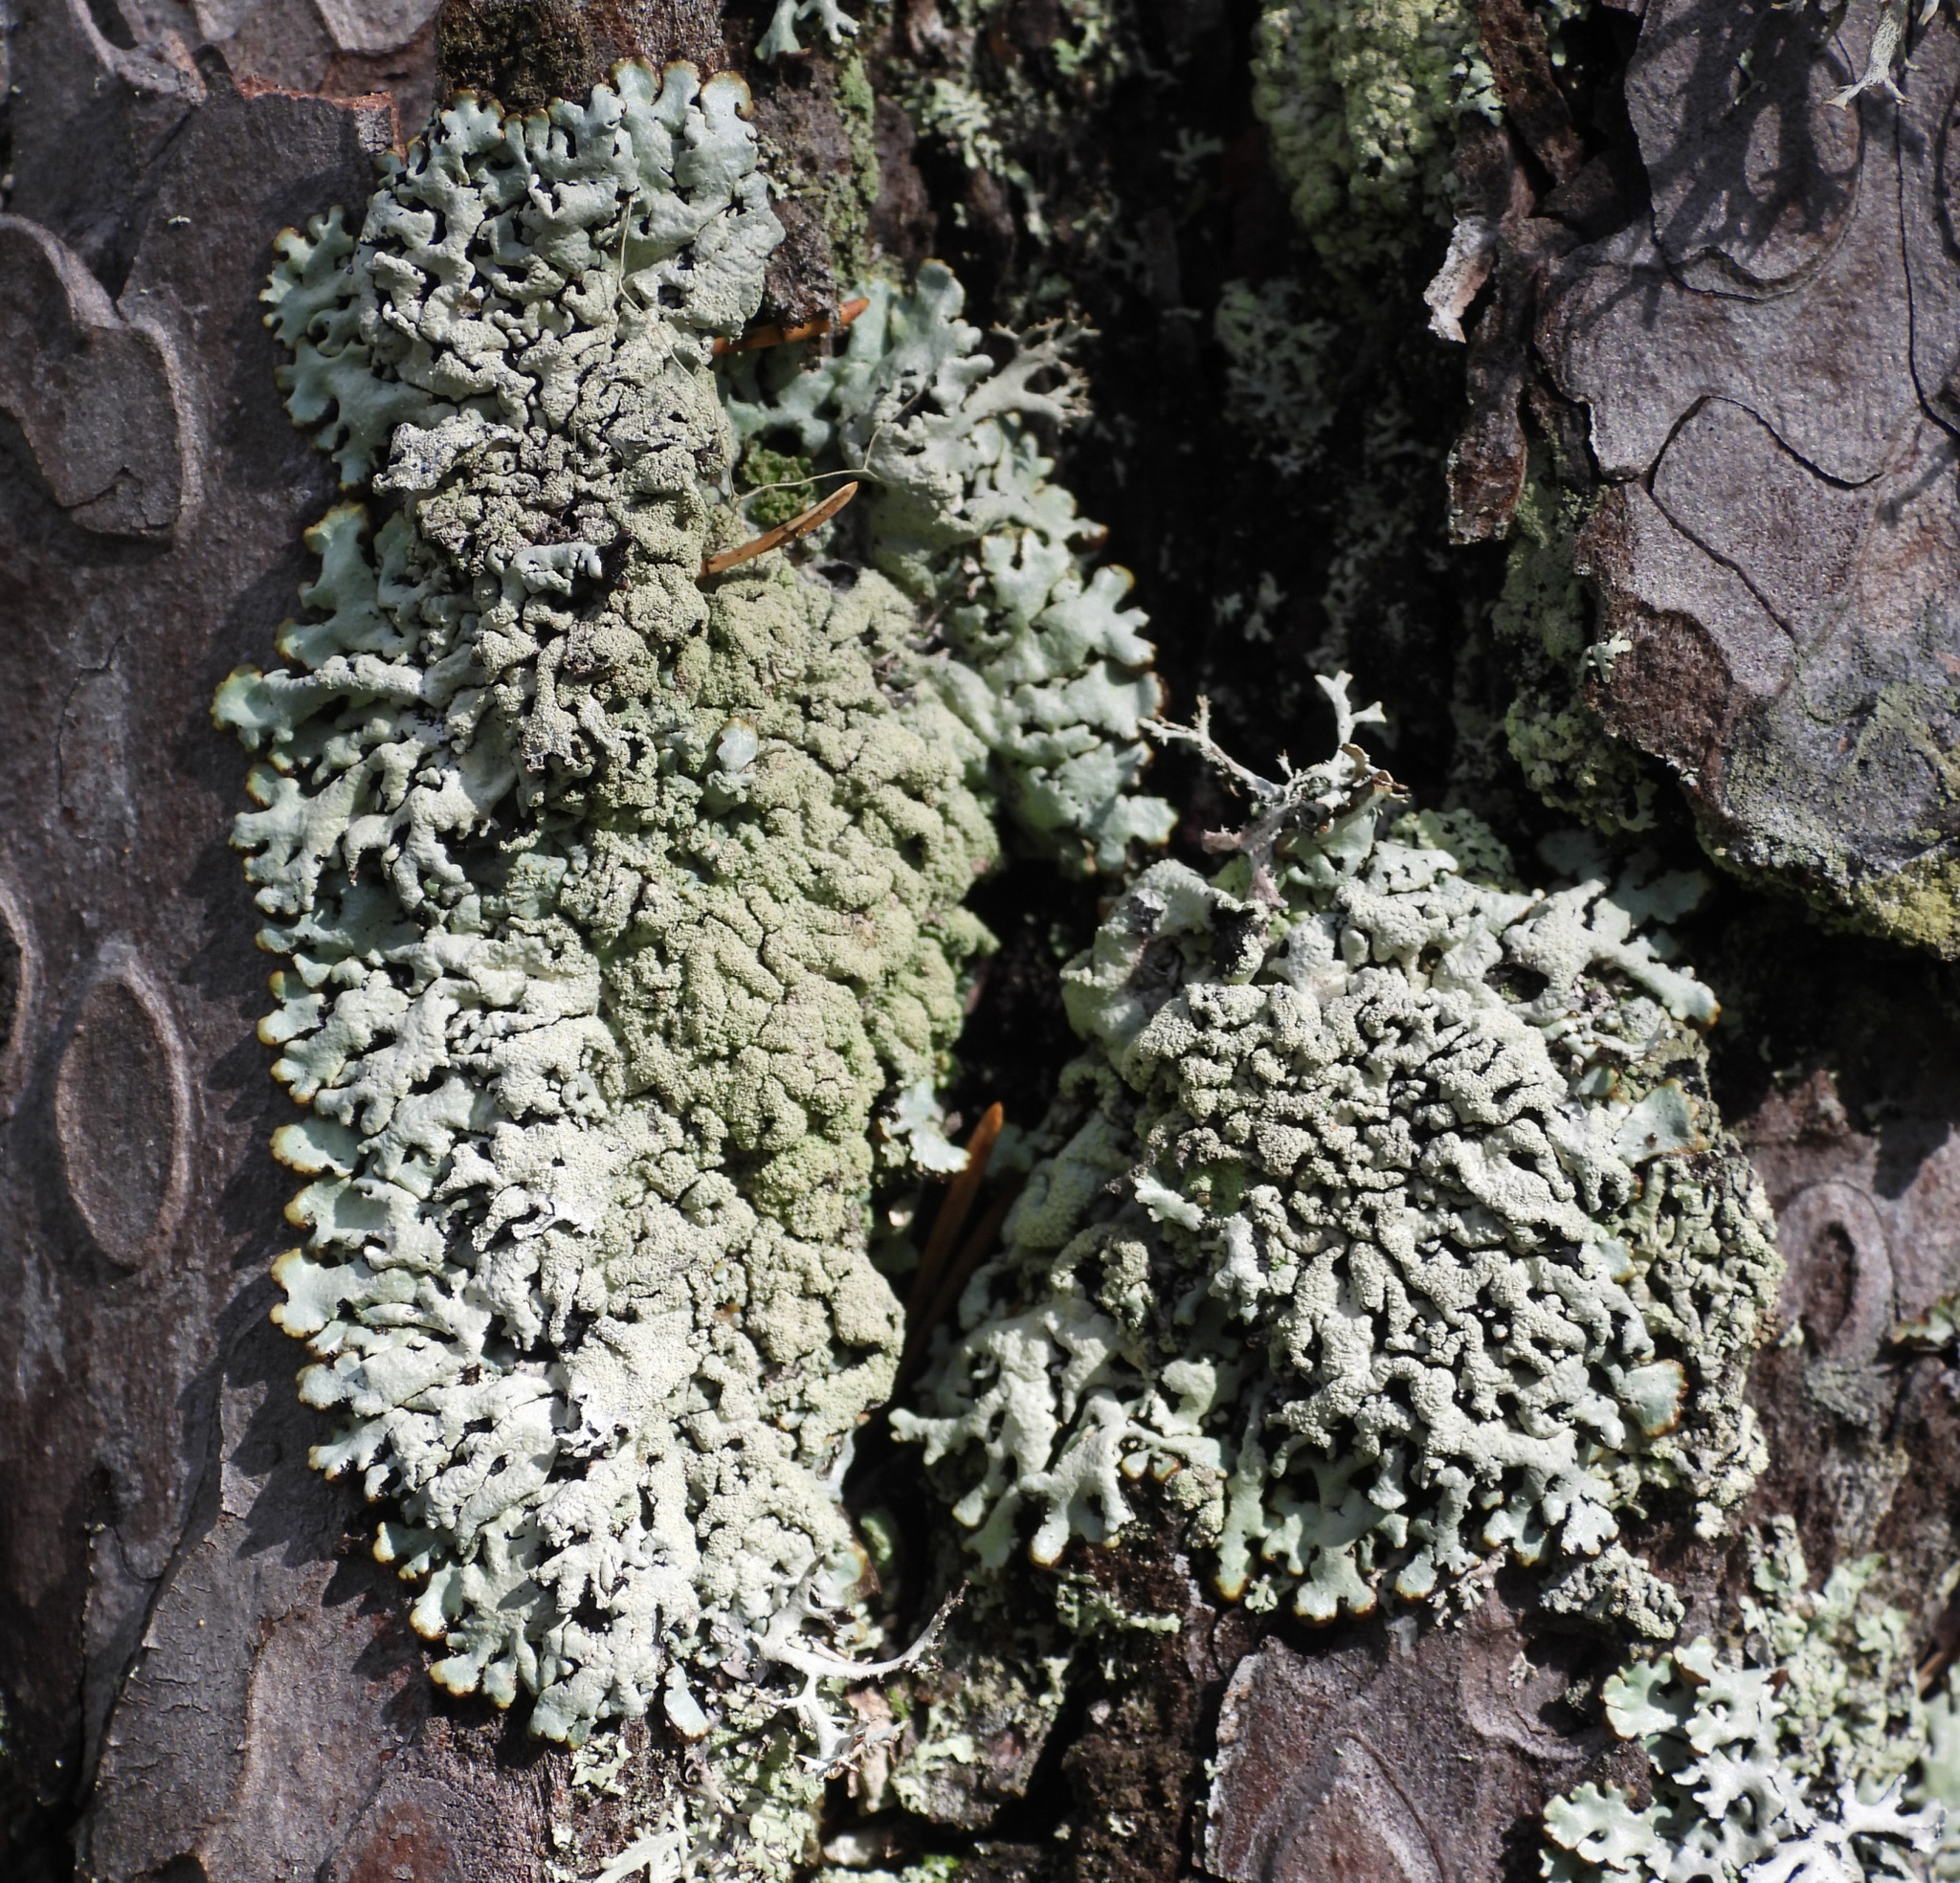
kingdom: Fungi
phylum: Ascomycota
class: Lecanoromycetes
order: Lecanorales
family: Parmeliaceae
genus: Hypogymnia
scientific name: Hypogymnia farinacea
